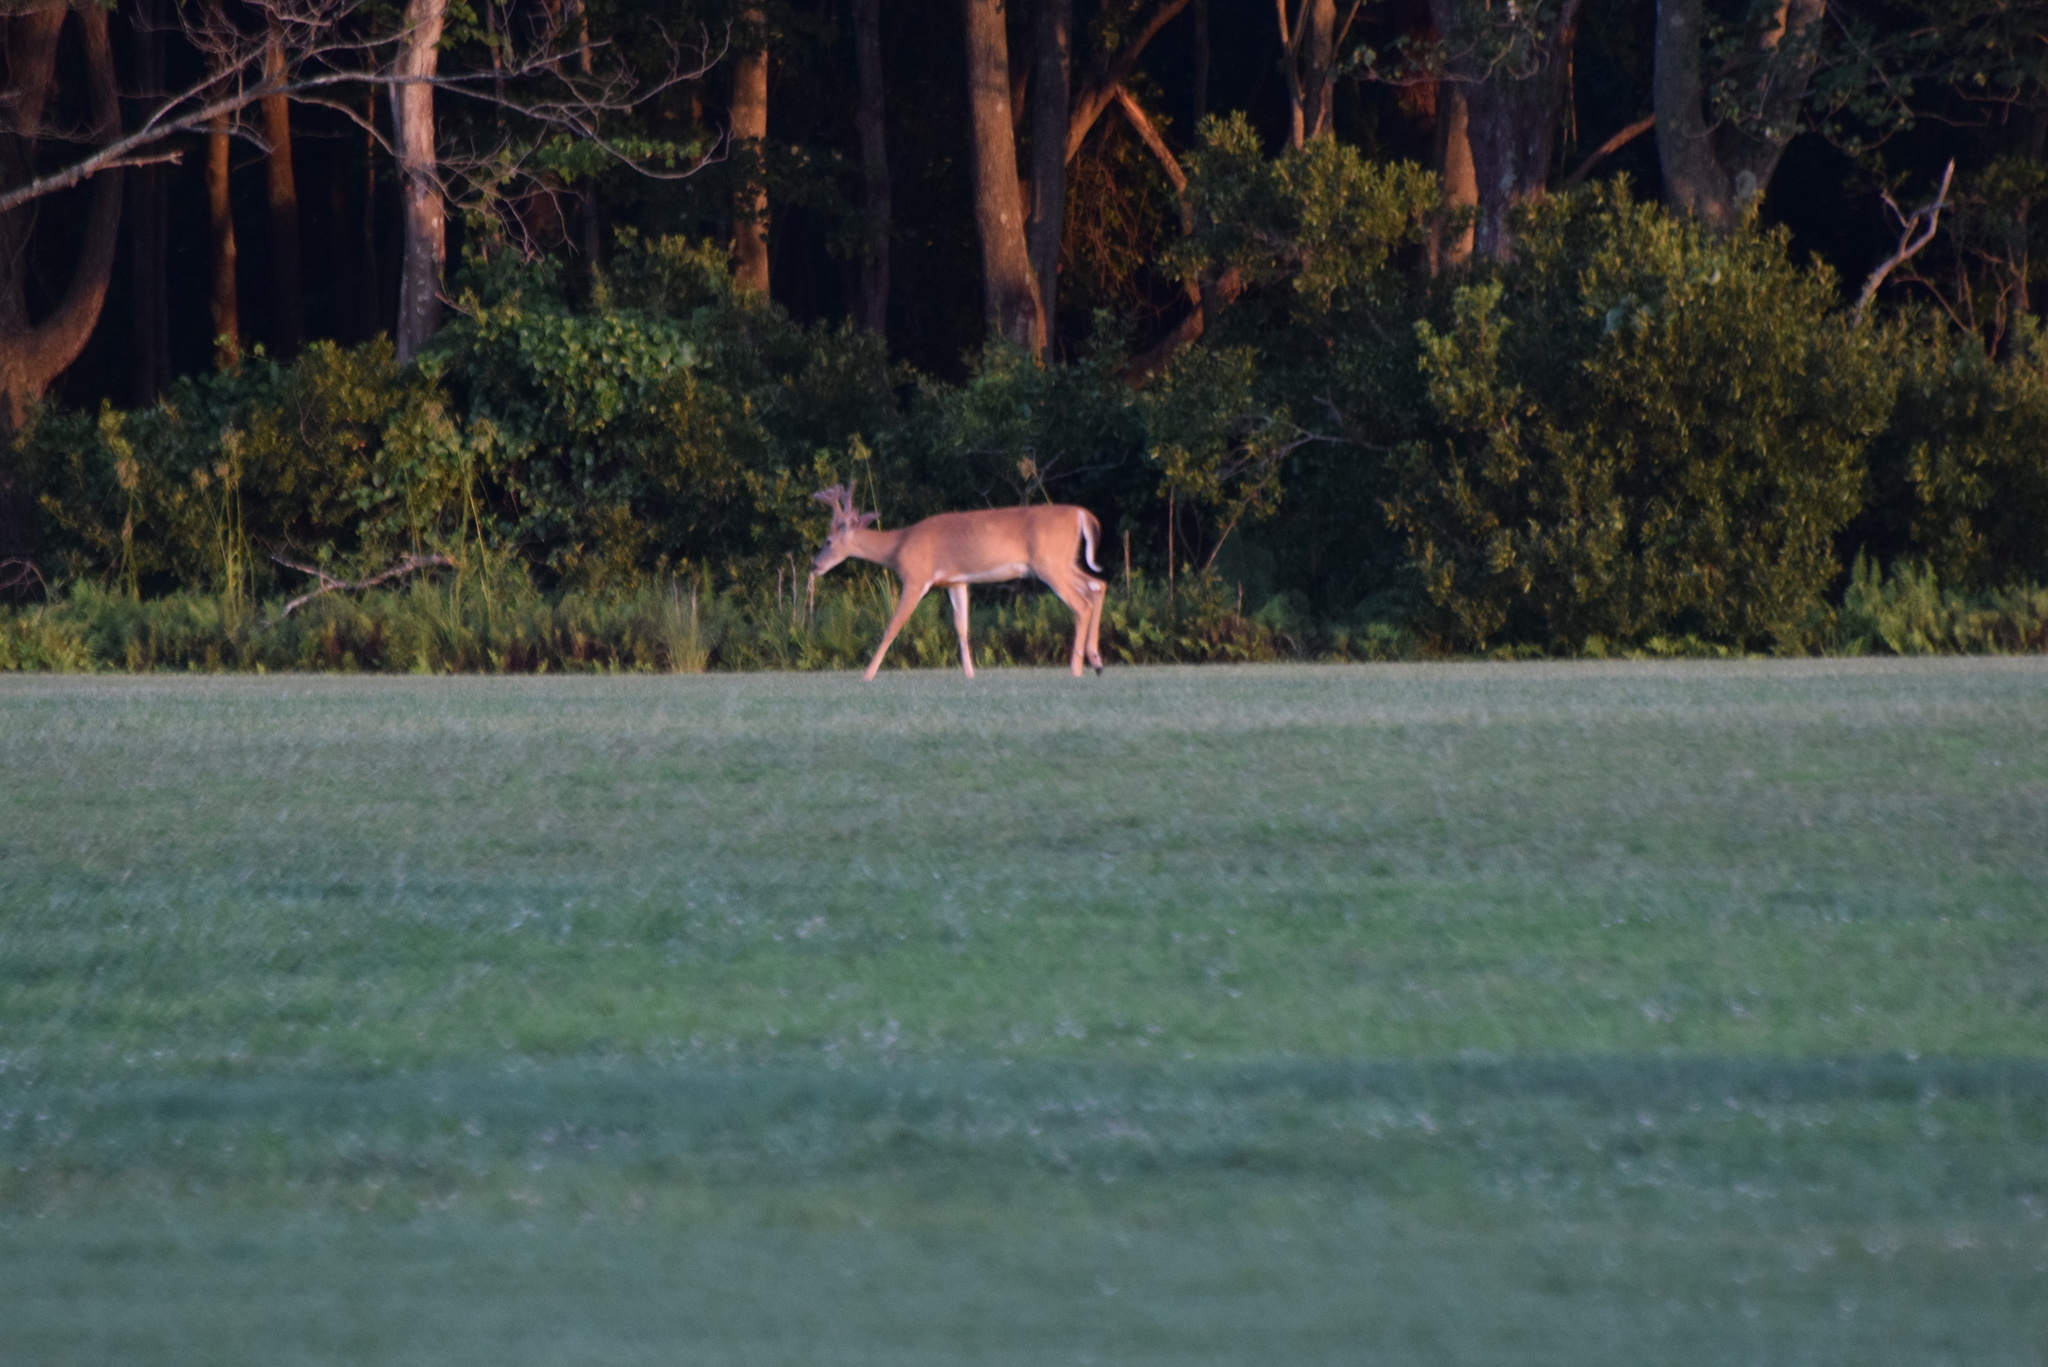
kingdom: Animalia
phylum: Chordata
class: Mammalia
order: Artiodactyla
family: Cervidae
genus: Odocoileus
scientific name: Odocoileus virginianus
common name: White-tailed deer
